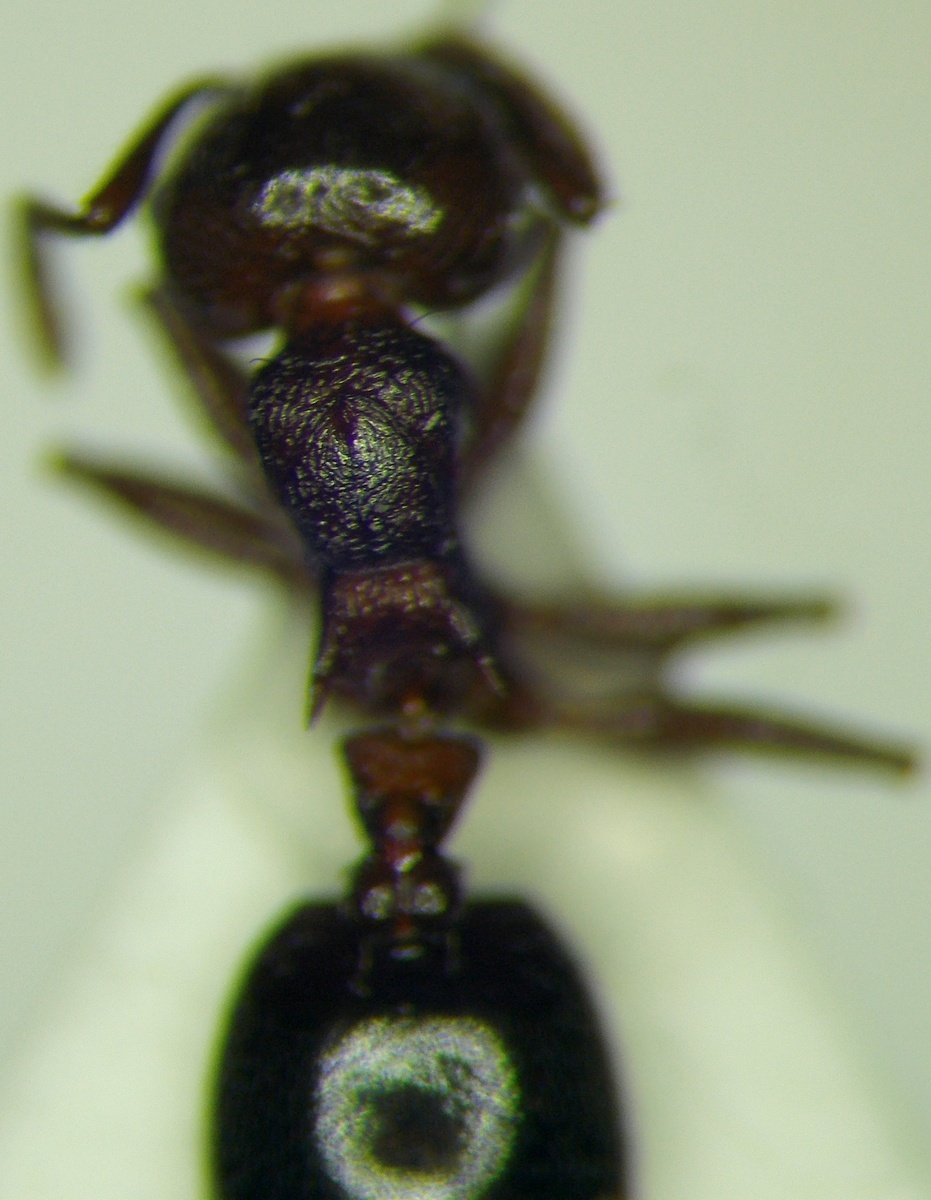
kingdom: Animalia
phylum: Arthropoda
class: Insecta
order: Hymenoptera
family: Formicidae
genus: Crematogaster
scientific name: Crematogaster schmidti
